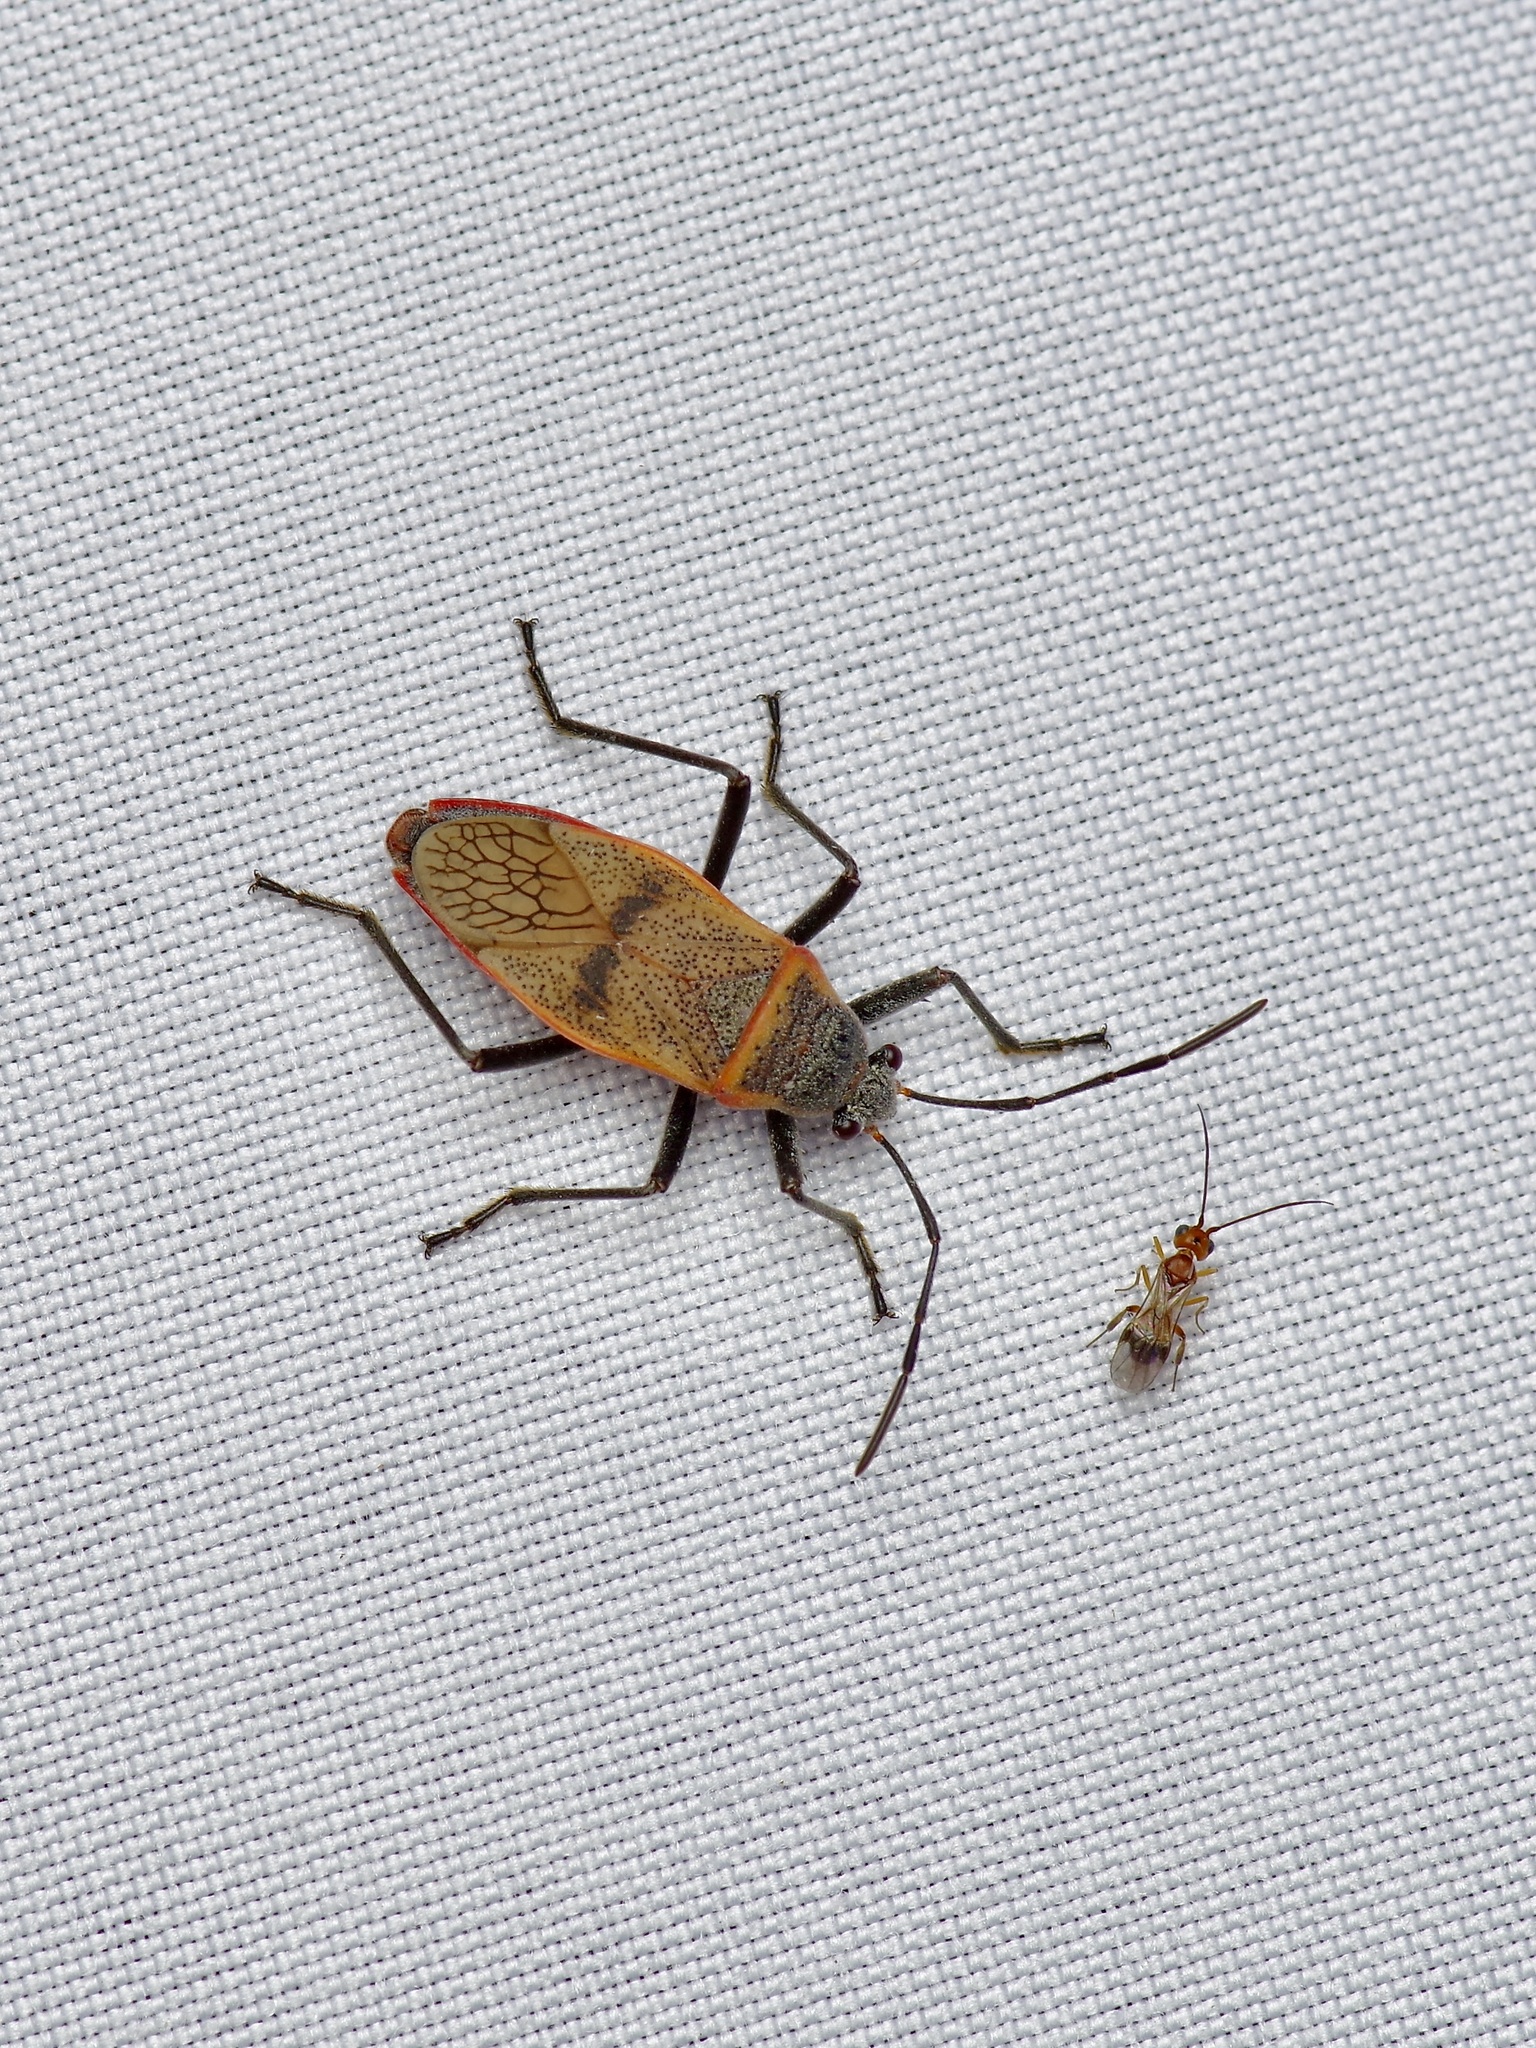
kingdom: Animalia
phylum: Arthropoda
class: Insecta
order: Hemiptera
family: Largidae
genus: Largus
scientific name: Largus maculatus
